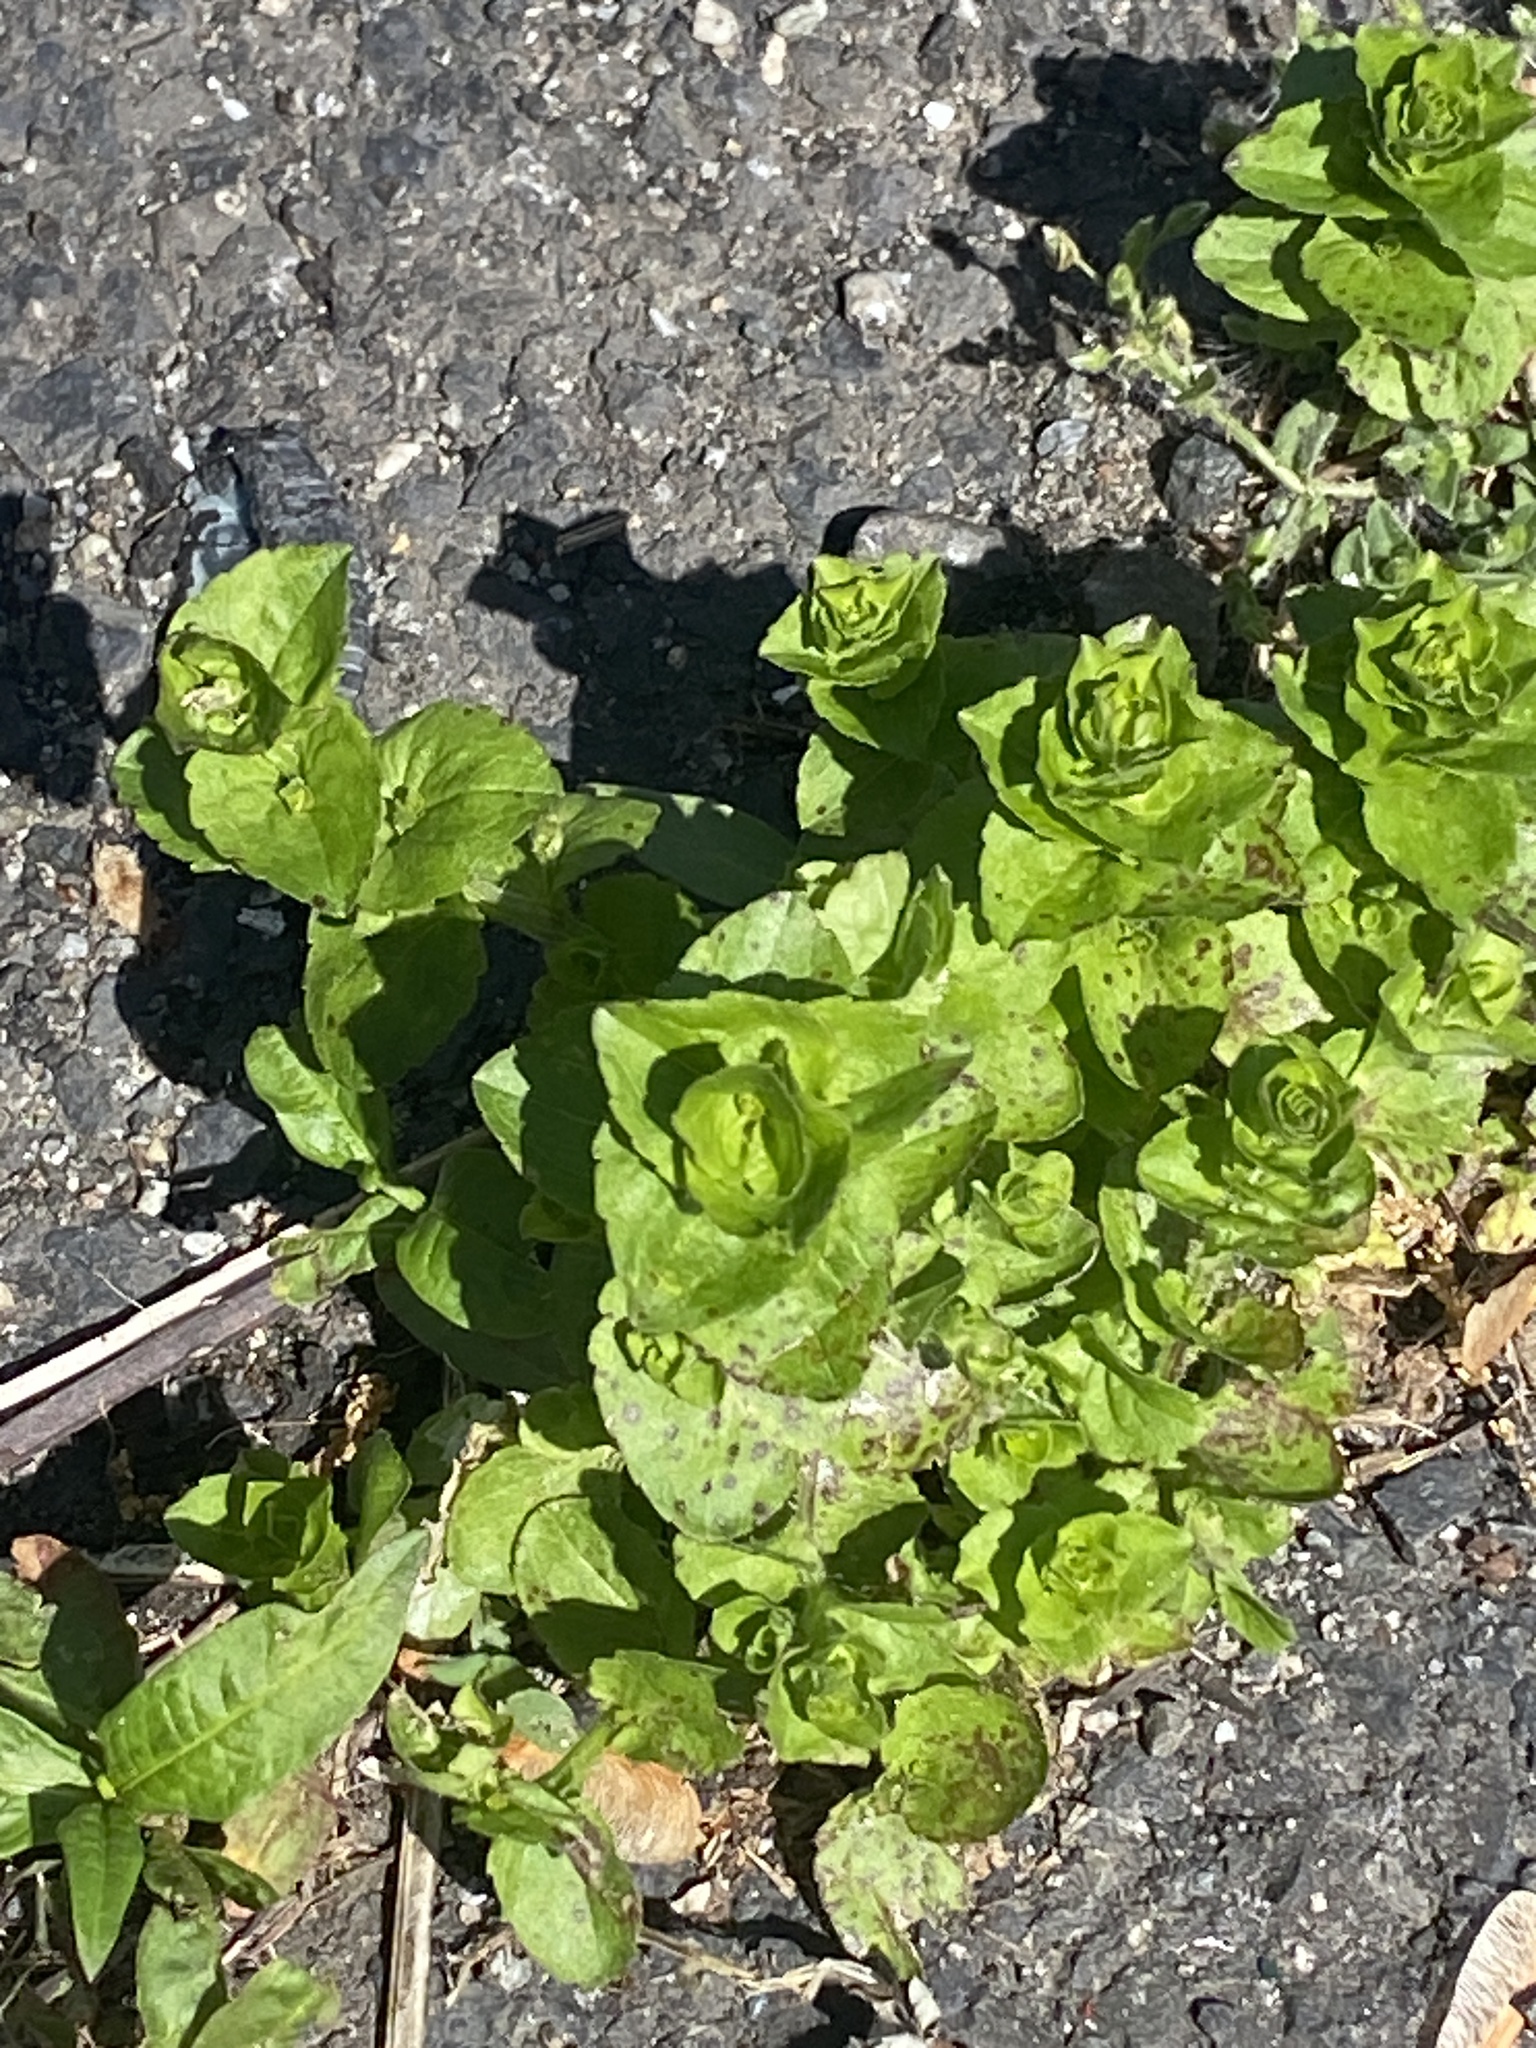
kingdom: Plantae
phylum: Tracheophyta
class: Magnoliopsida
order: Asterales
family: Campanulaceae
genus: Triodanis
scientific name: Triodanis perfoliata
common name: Clasping venus' looking-glass
